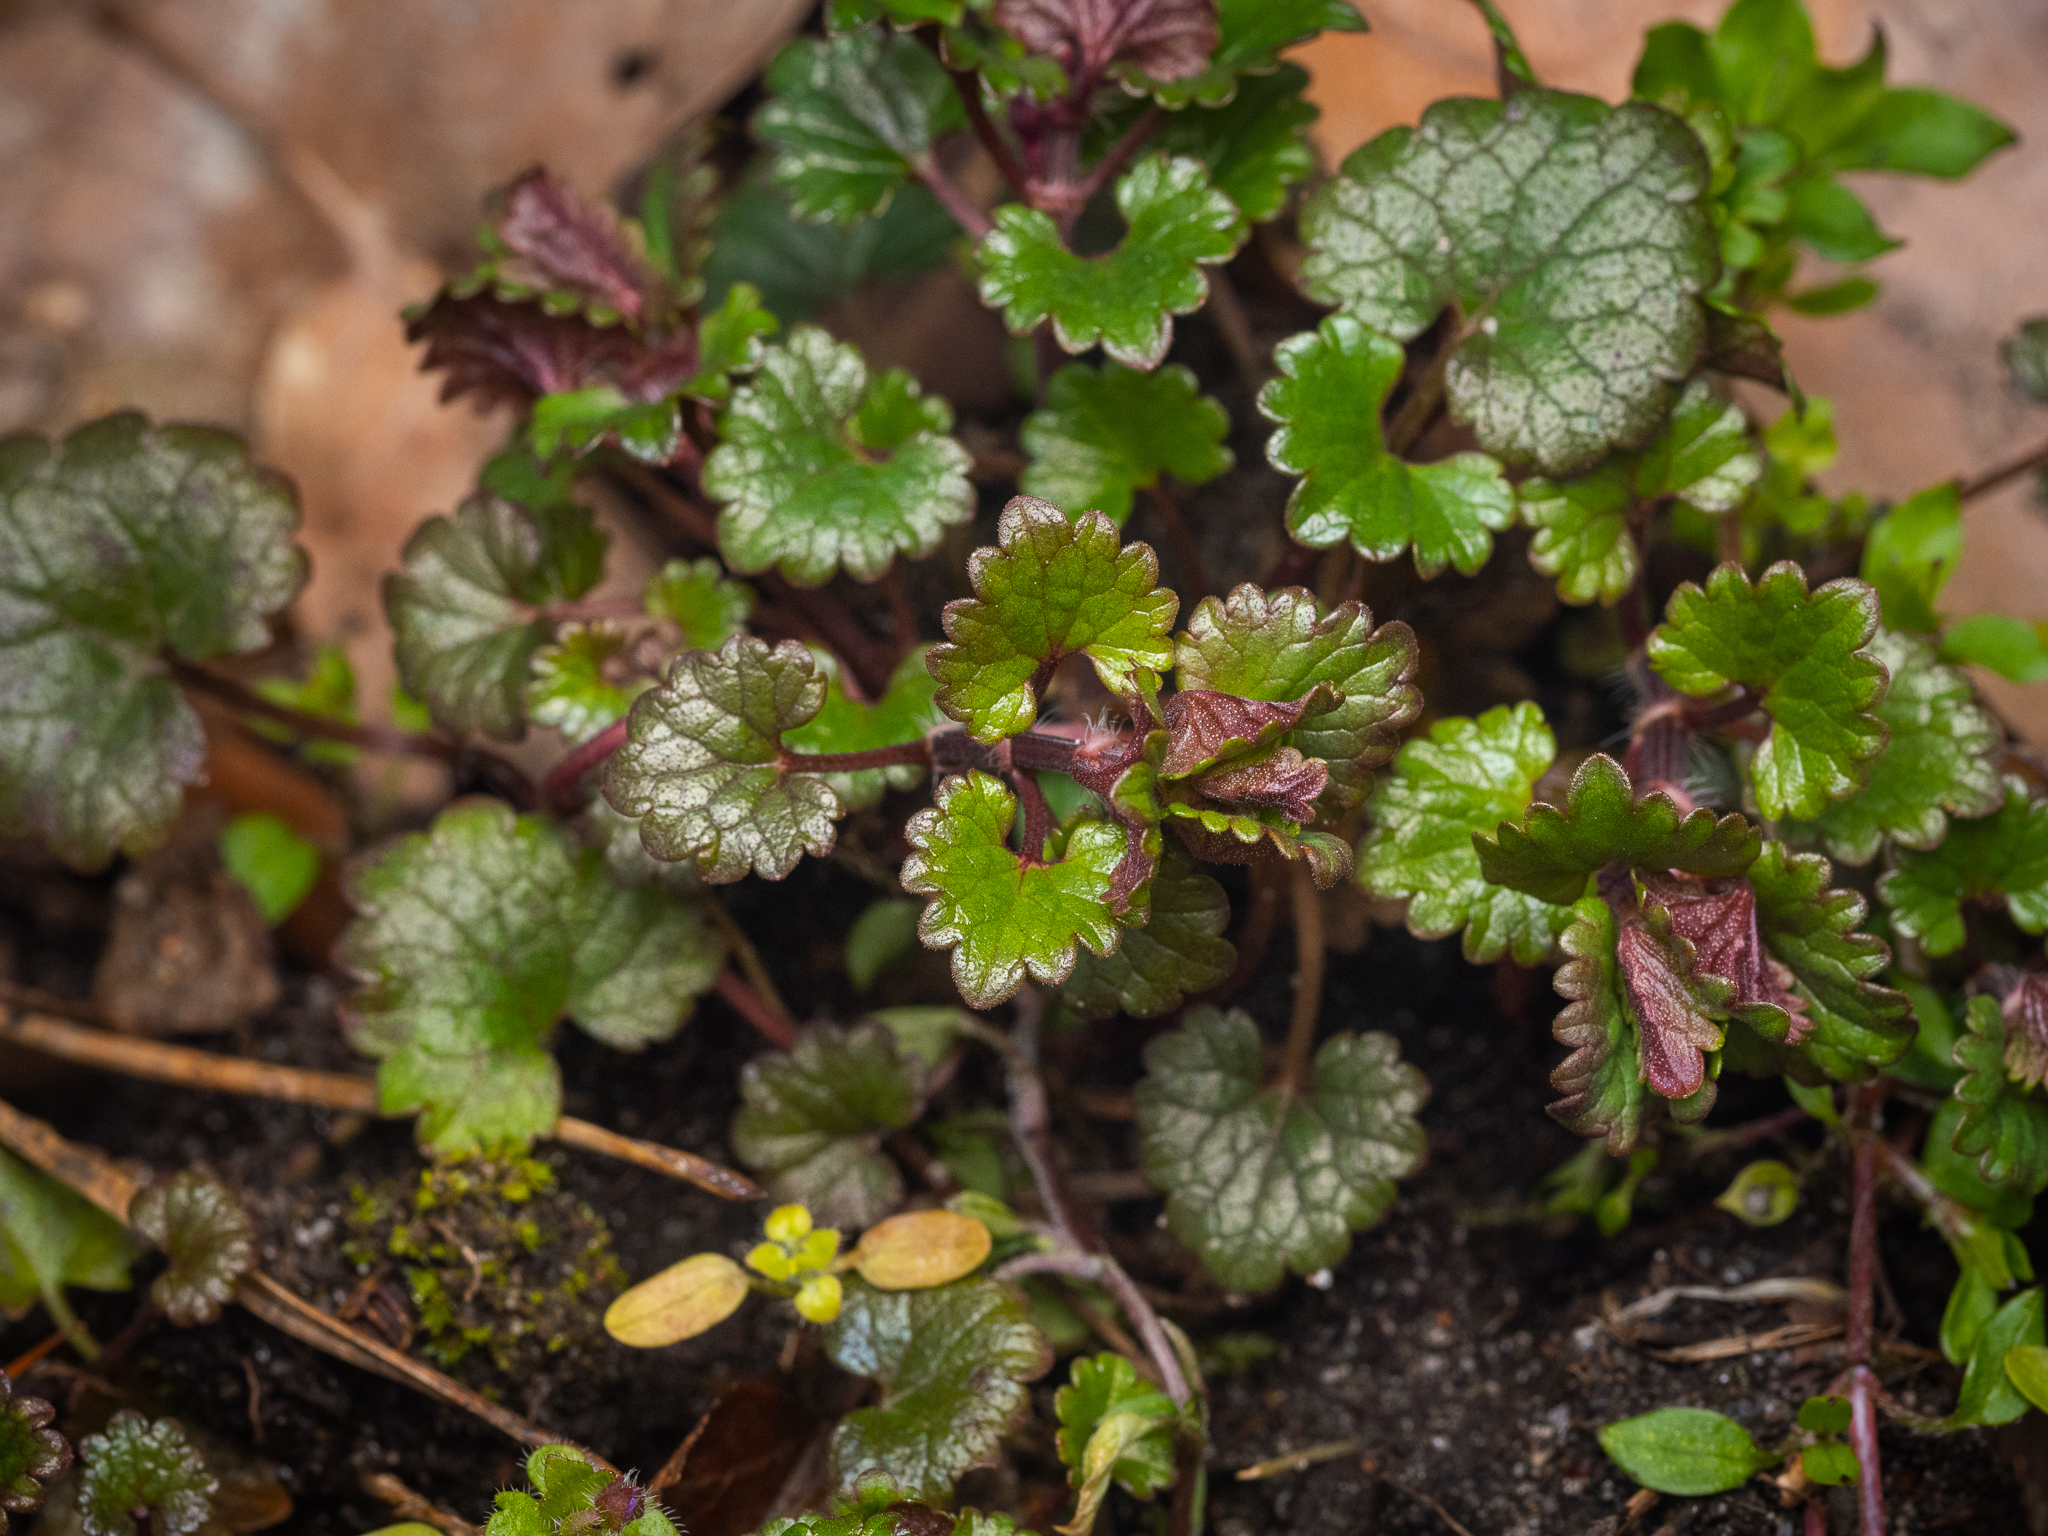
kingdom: Plantae
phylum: Tracheophyta
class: Magnoliopsida
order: Lamiales
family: Lamiaceae
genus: Glechoma
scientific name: Glechoma hederacea
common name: Ground ivy
